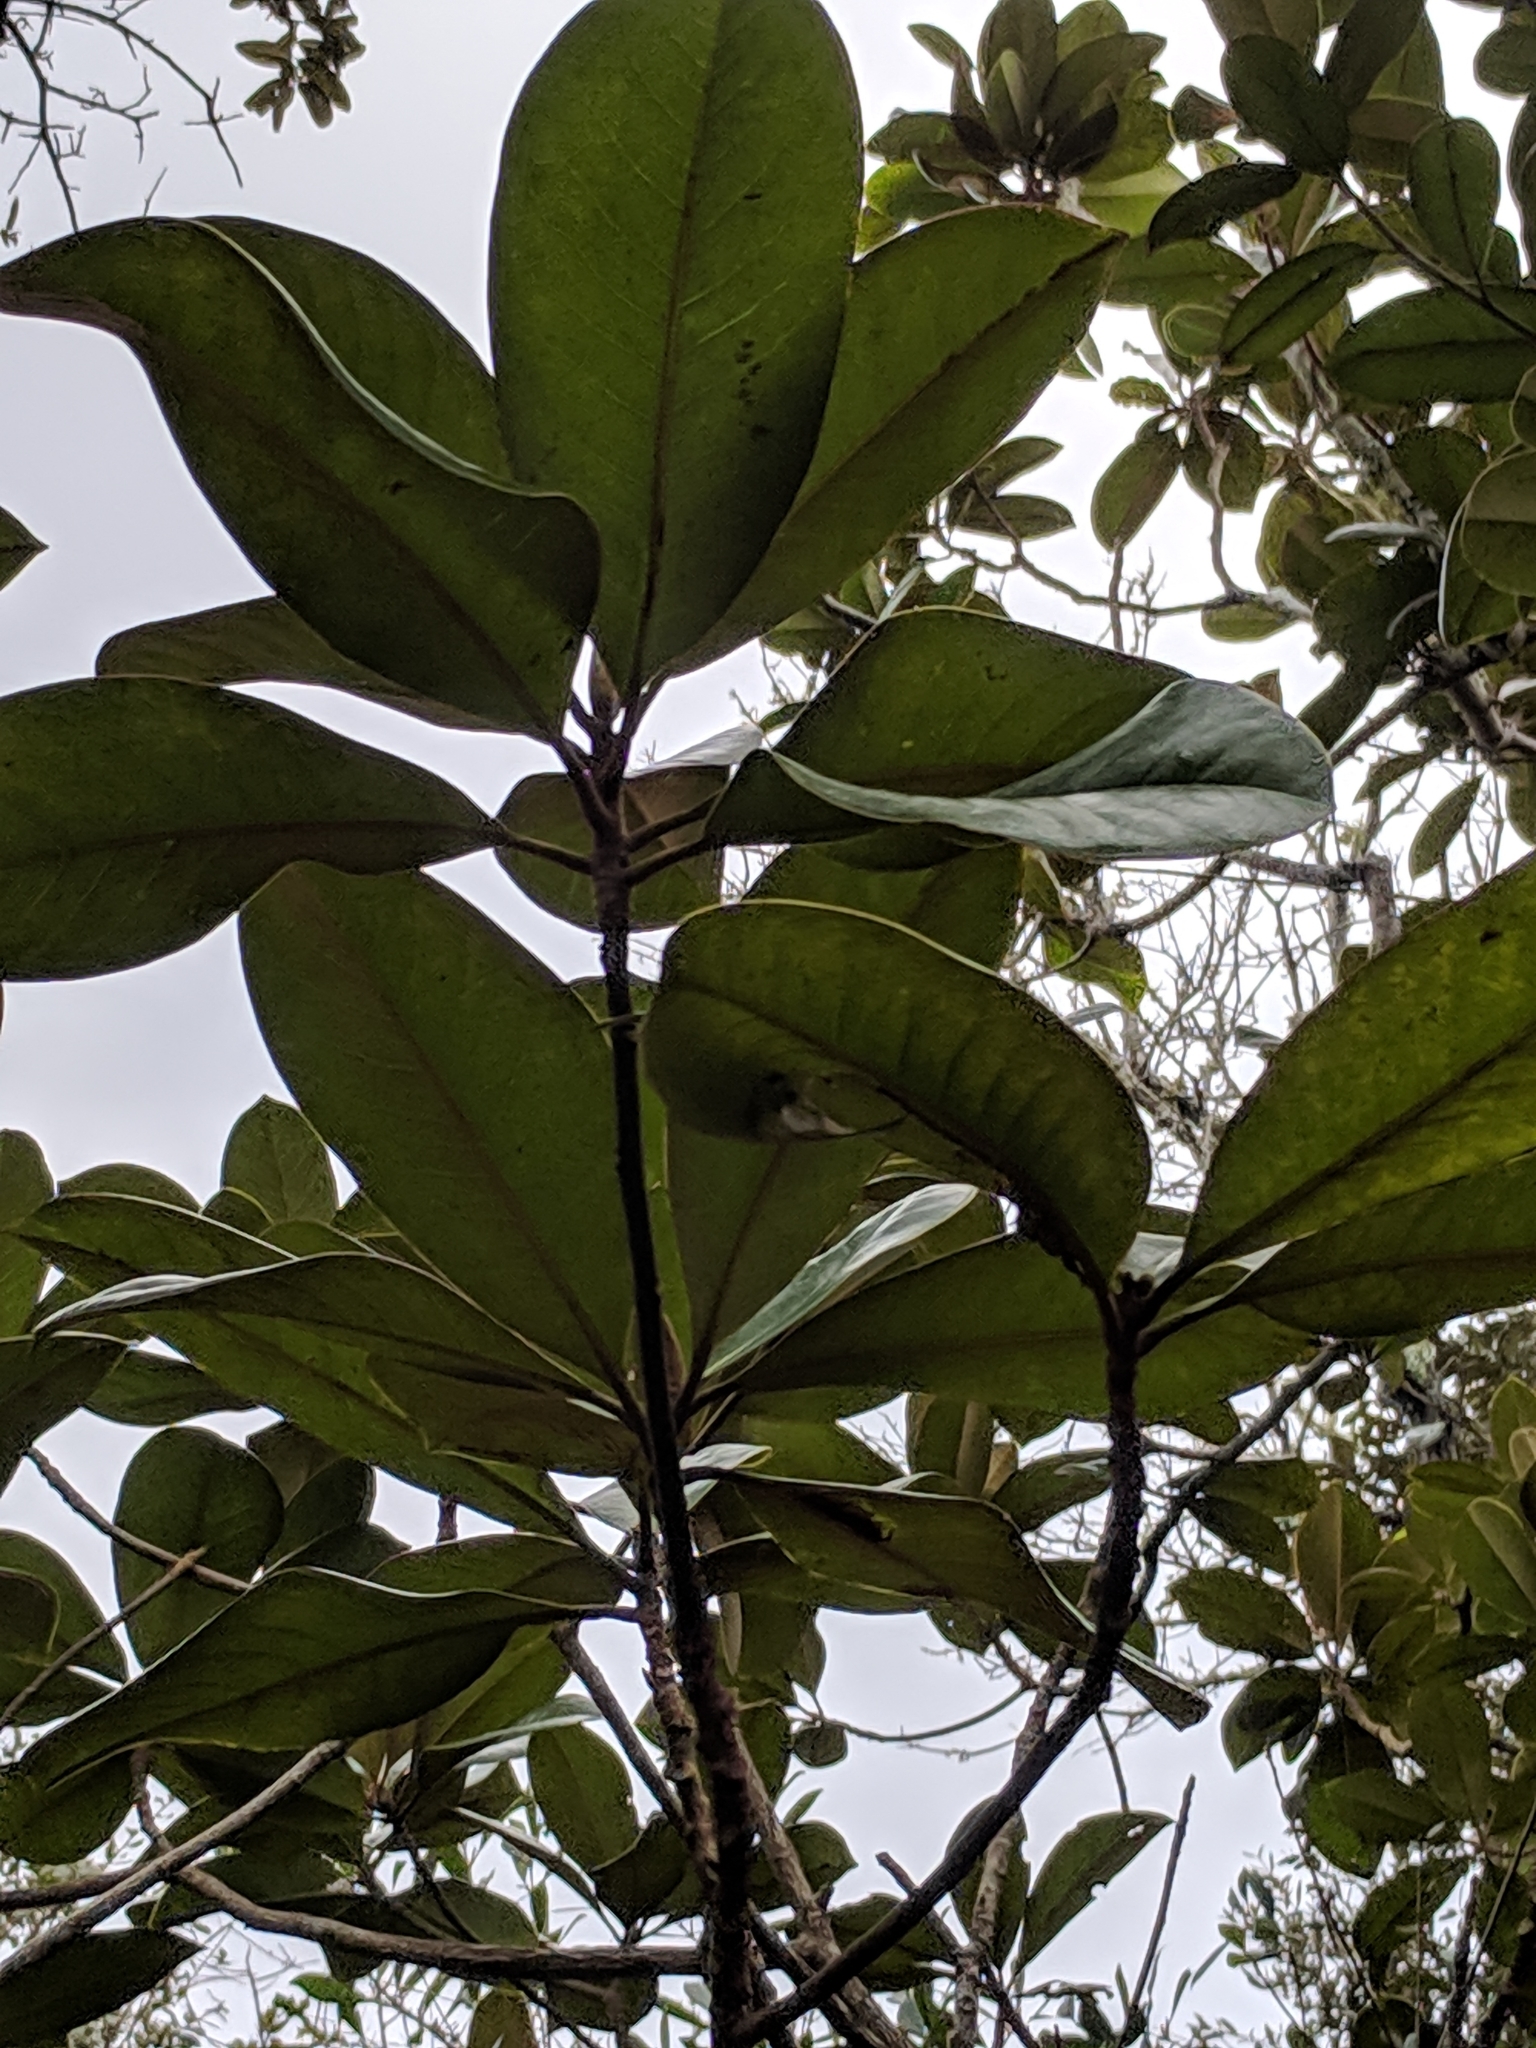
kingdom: Plantae
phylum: Tracheophyta
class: Magnoliopsida
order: Magnoliales
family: Magnoliaceae
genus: Magnolia
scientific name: Magnolia grandiflora
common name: Southern magnolia
